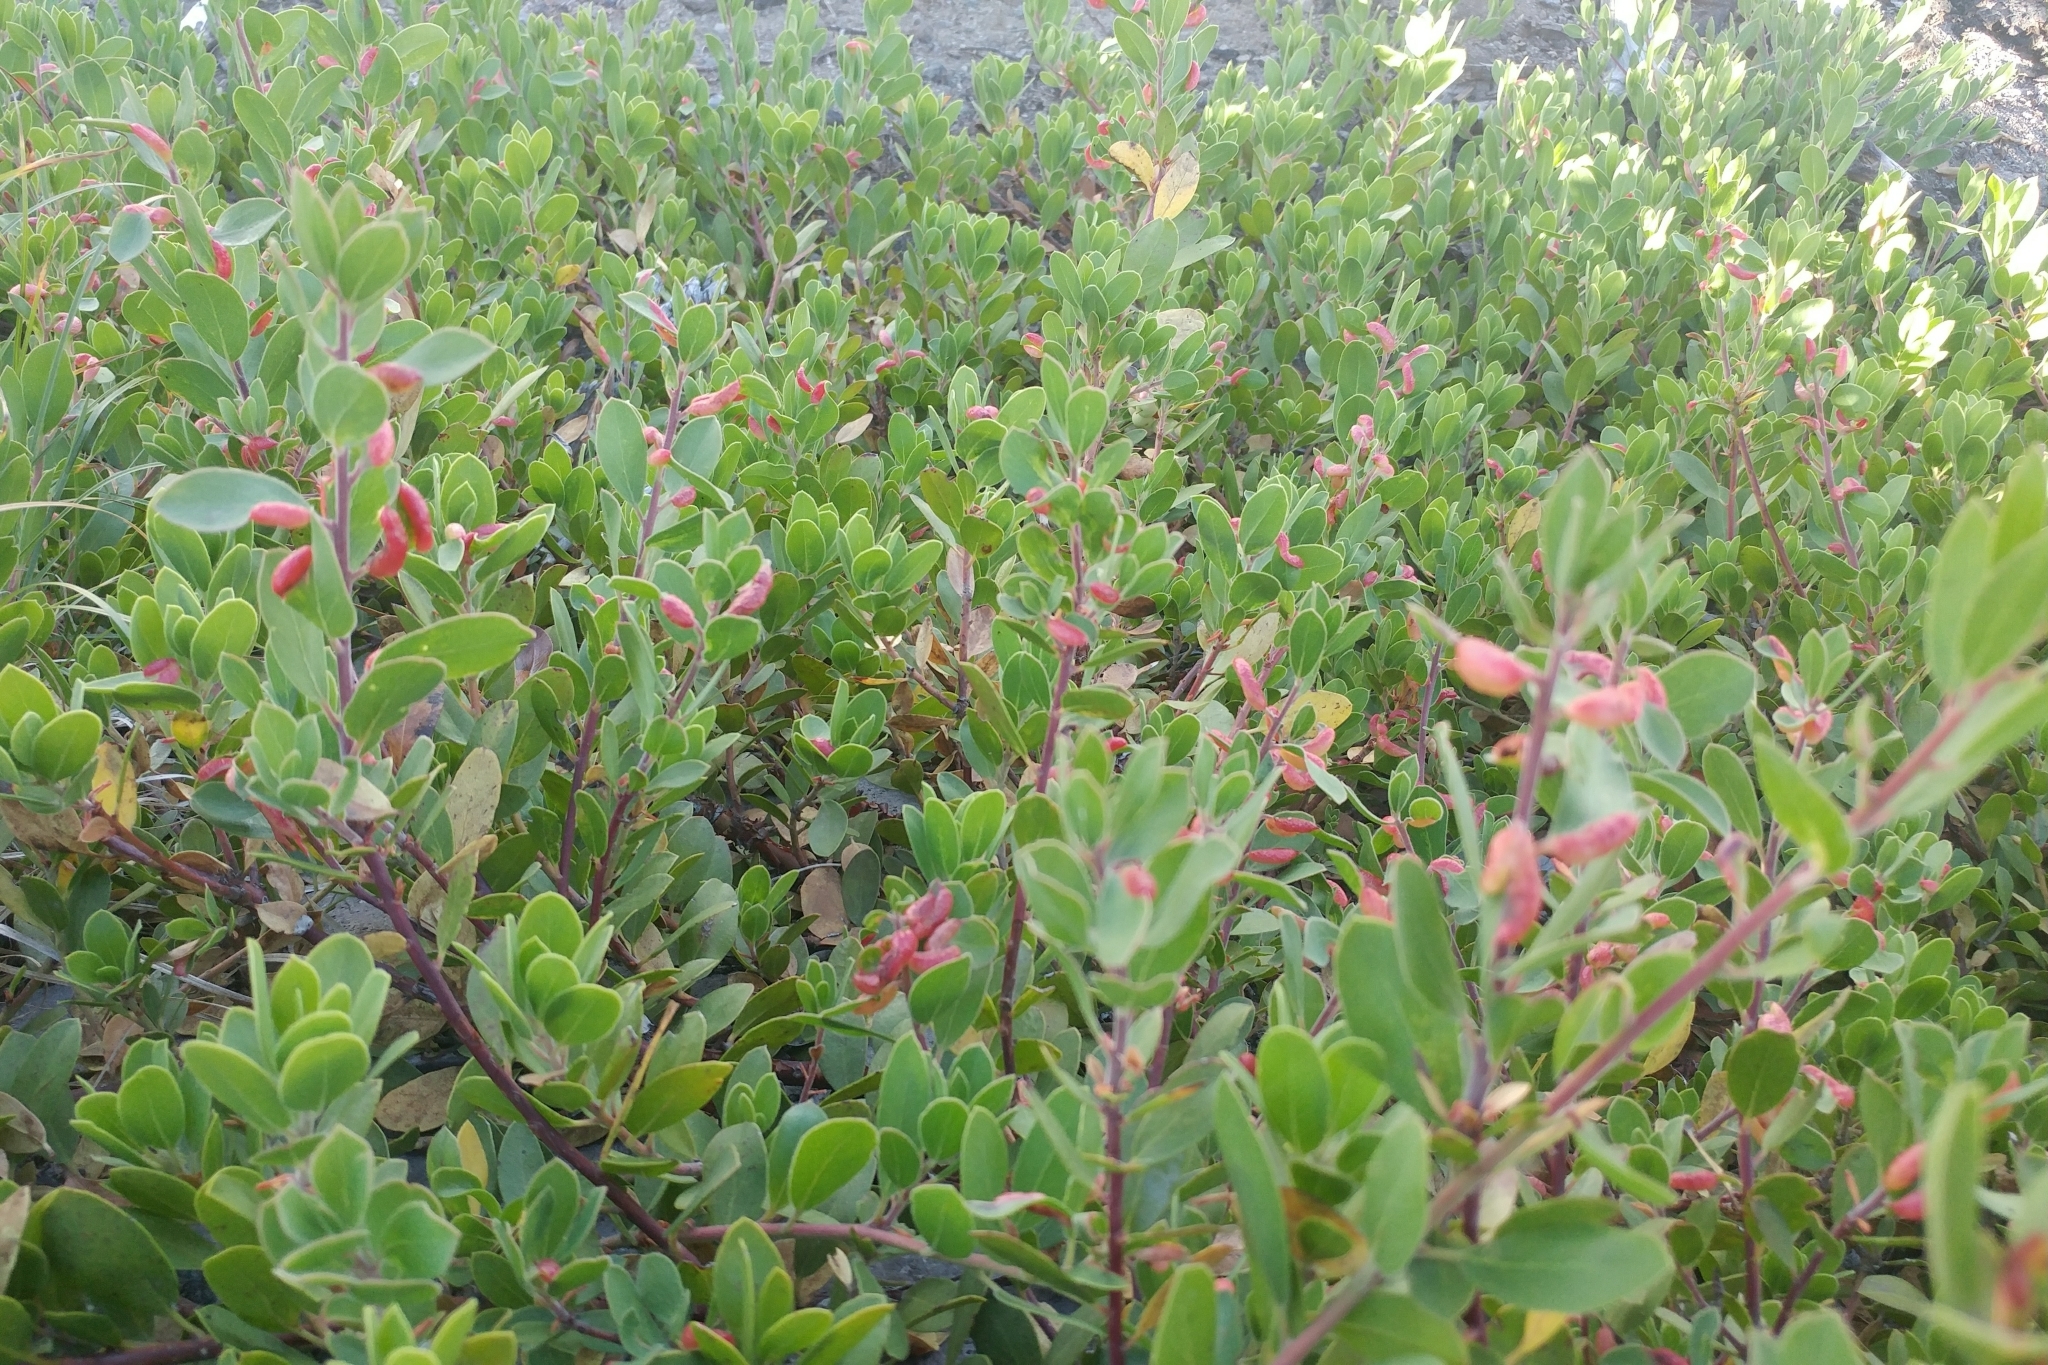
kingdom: Plantae
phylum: Tracheophyta
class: Magnoliopsida
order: Ericales
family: Ericaceae
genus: Arctostaphylos
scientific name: Arctostaphylos nevadensis
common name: Pinemat manzanita
